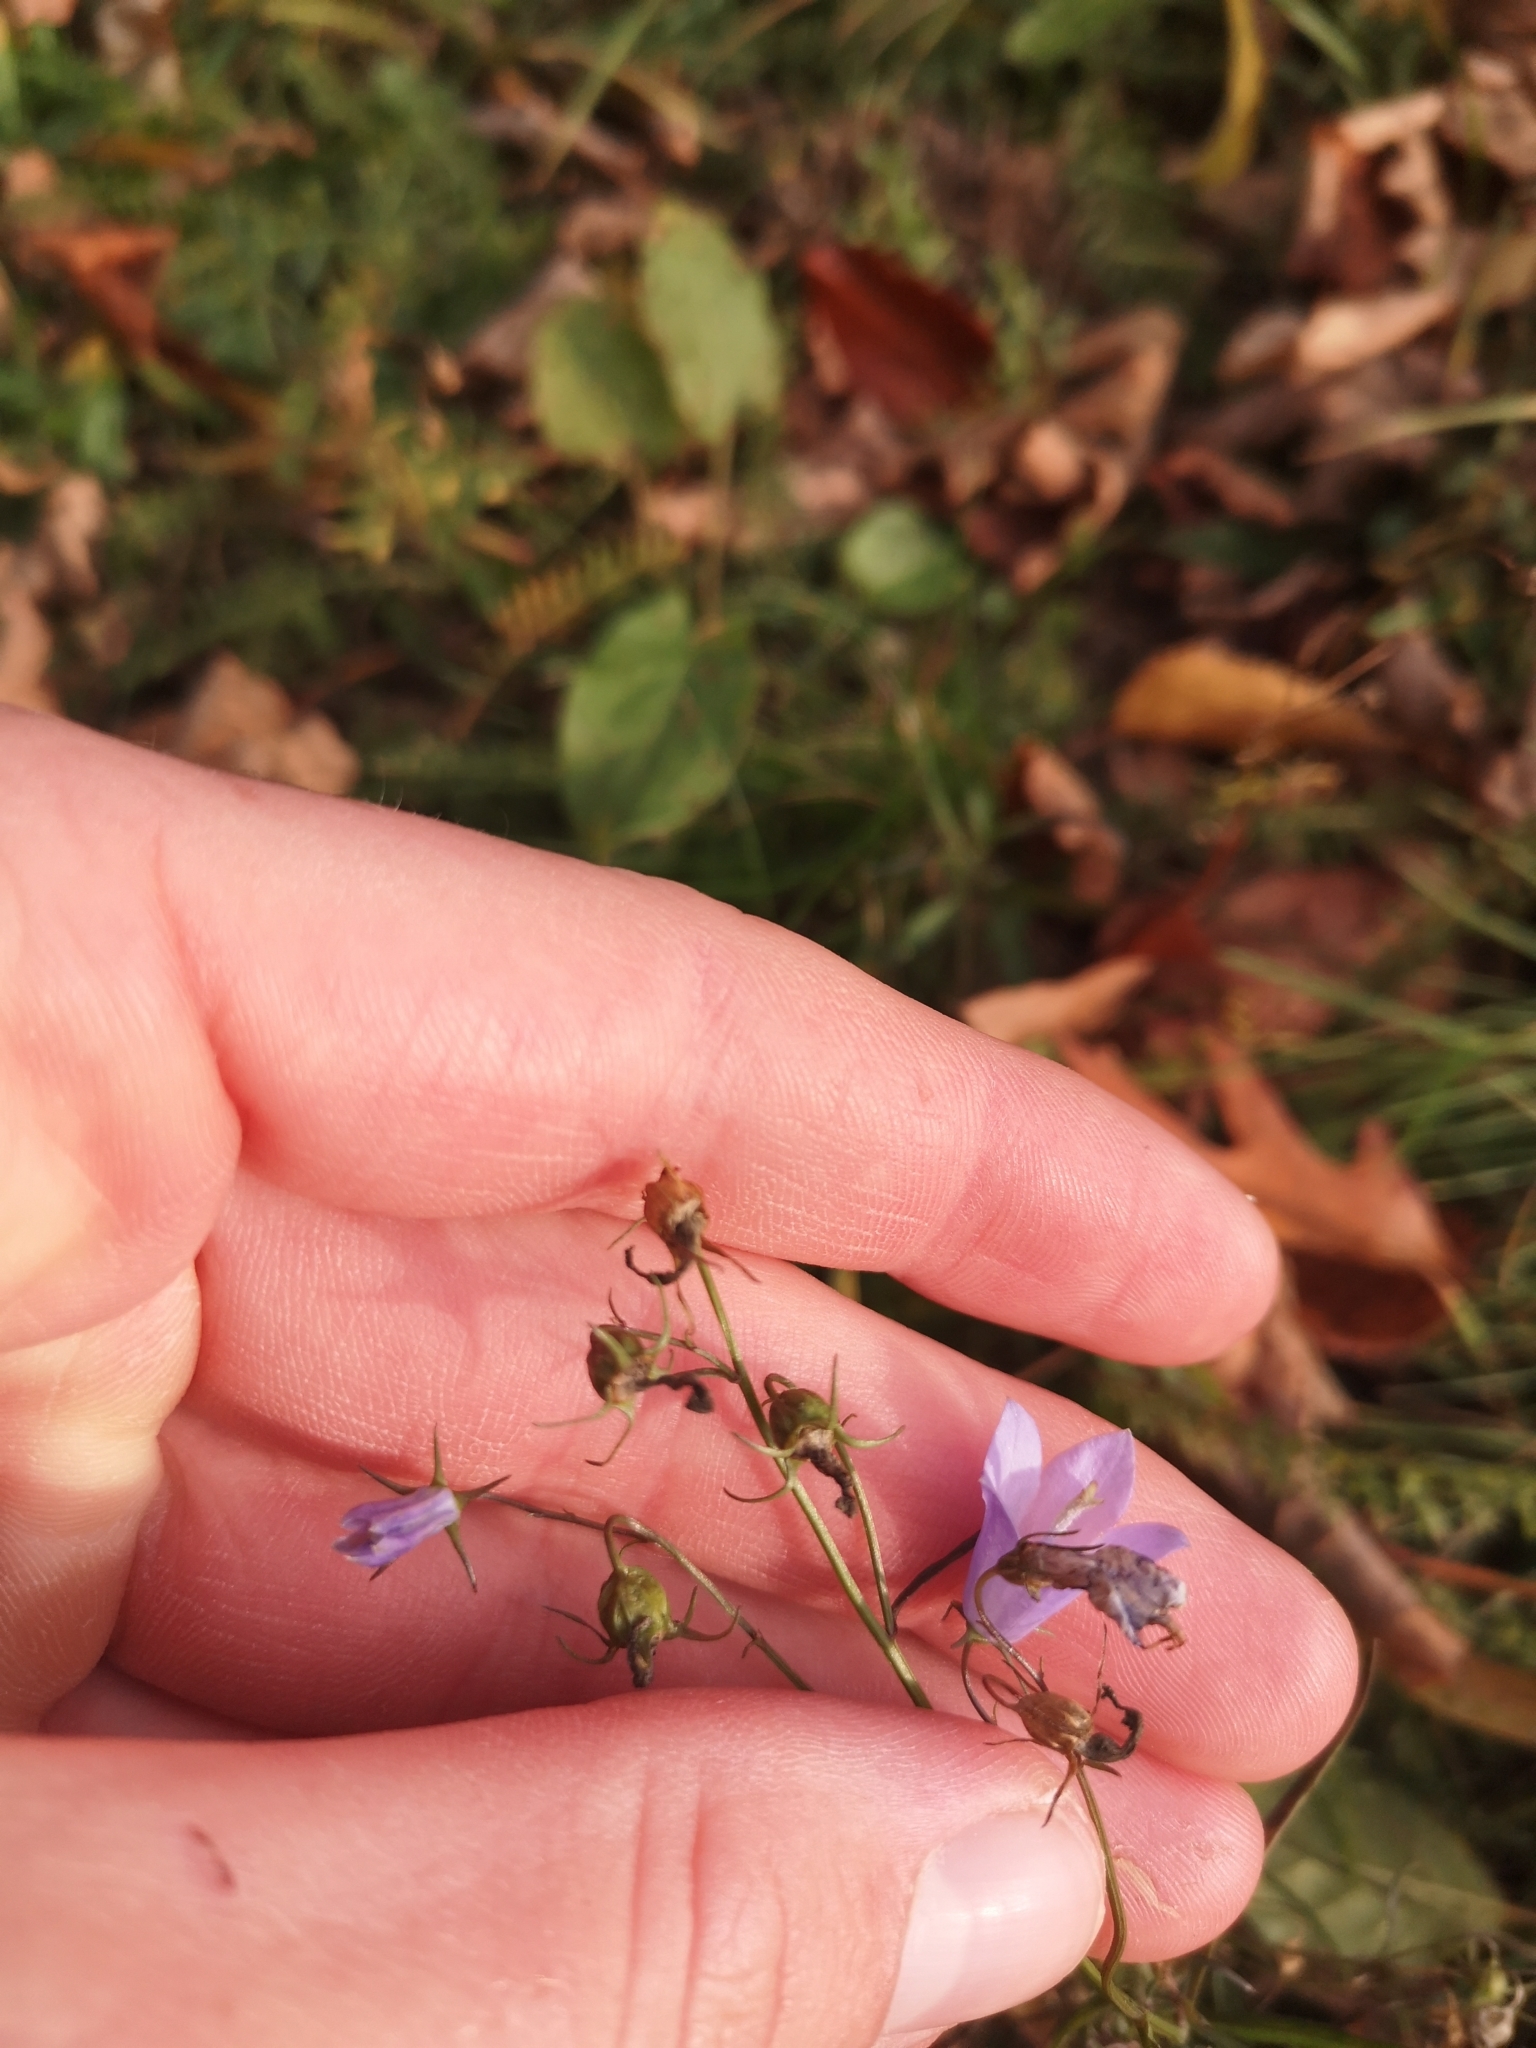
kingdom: Plantae
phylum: Tracheophyta
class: Magnoliopsida
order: Asterales
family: Campanulaceae
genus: Campanula
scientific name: Campanula rotundifolia
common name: Harebell
